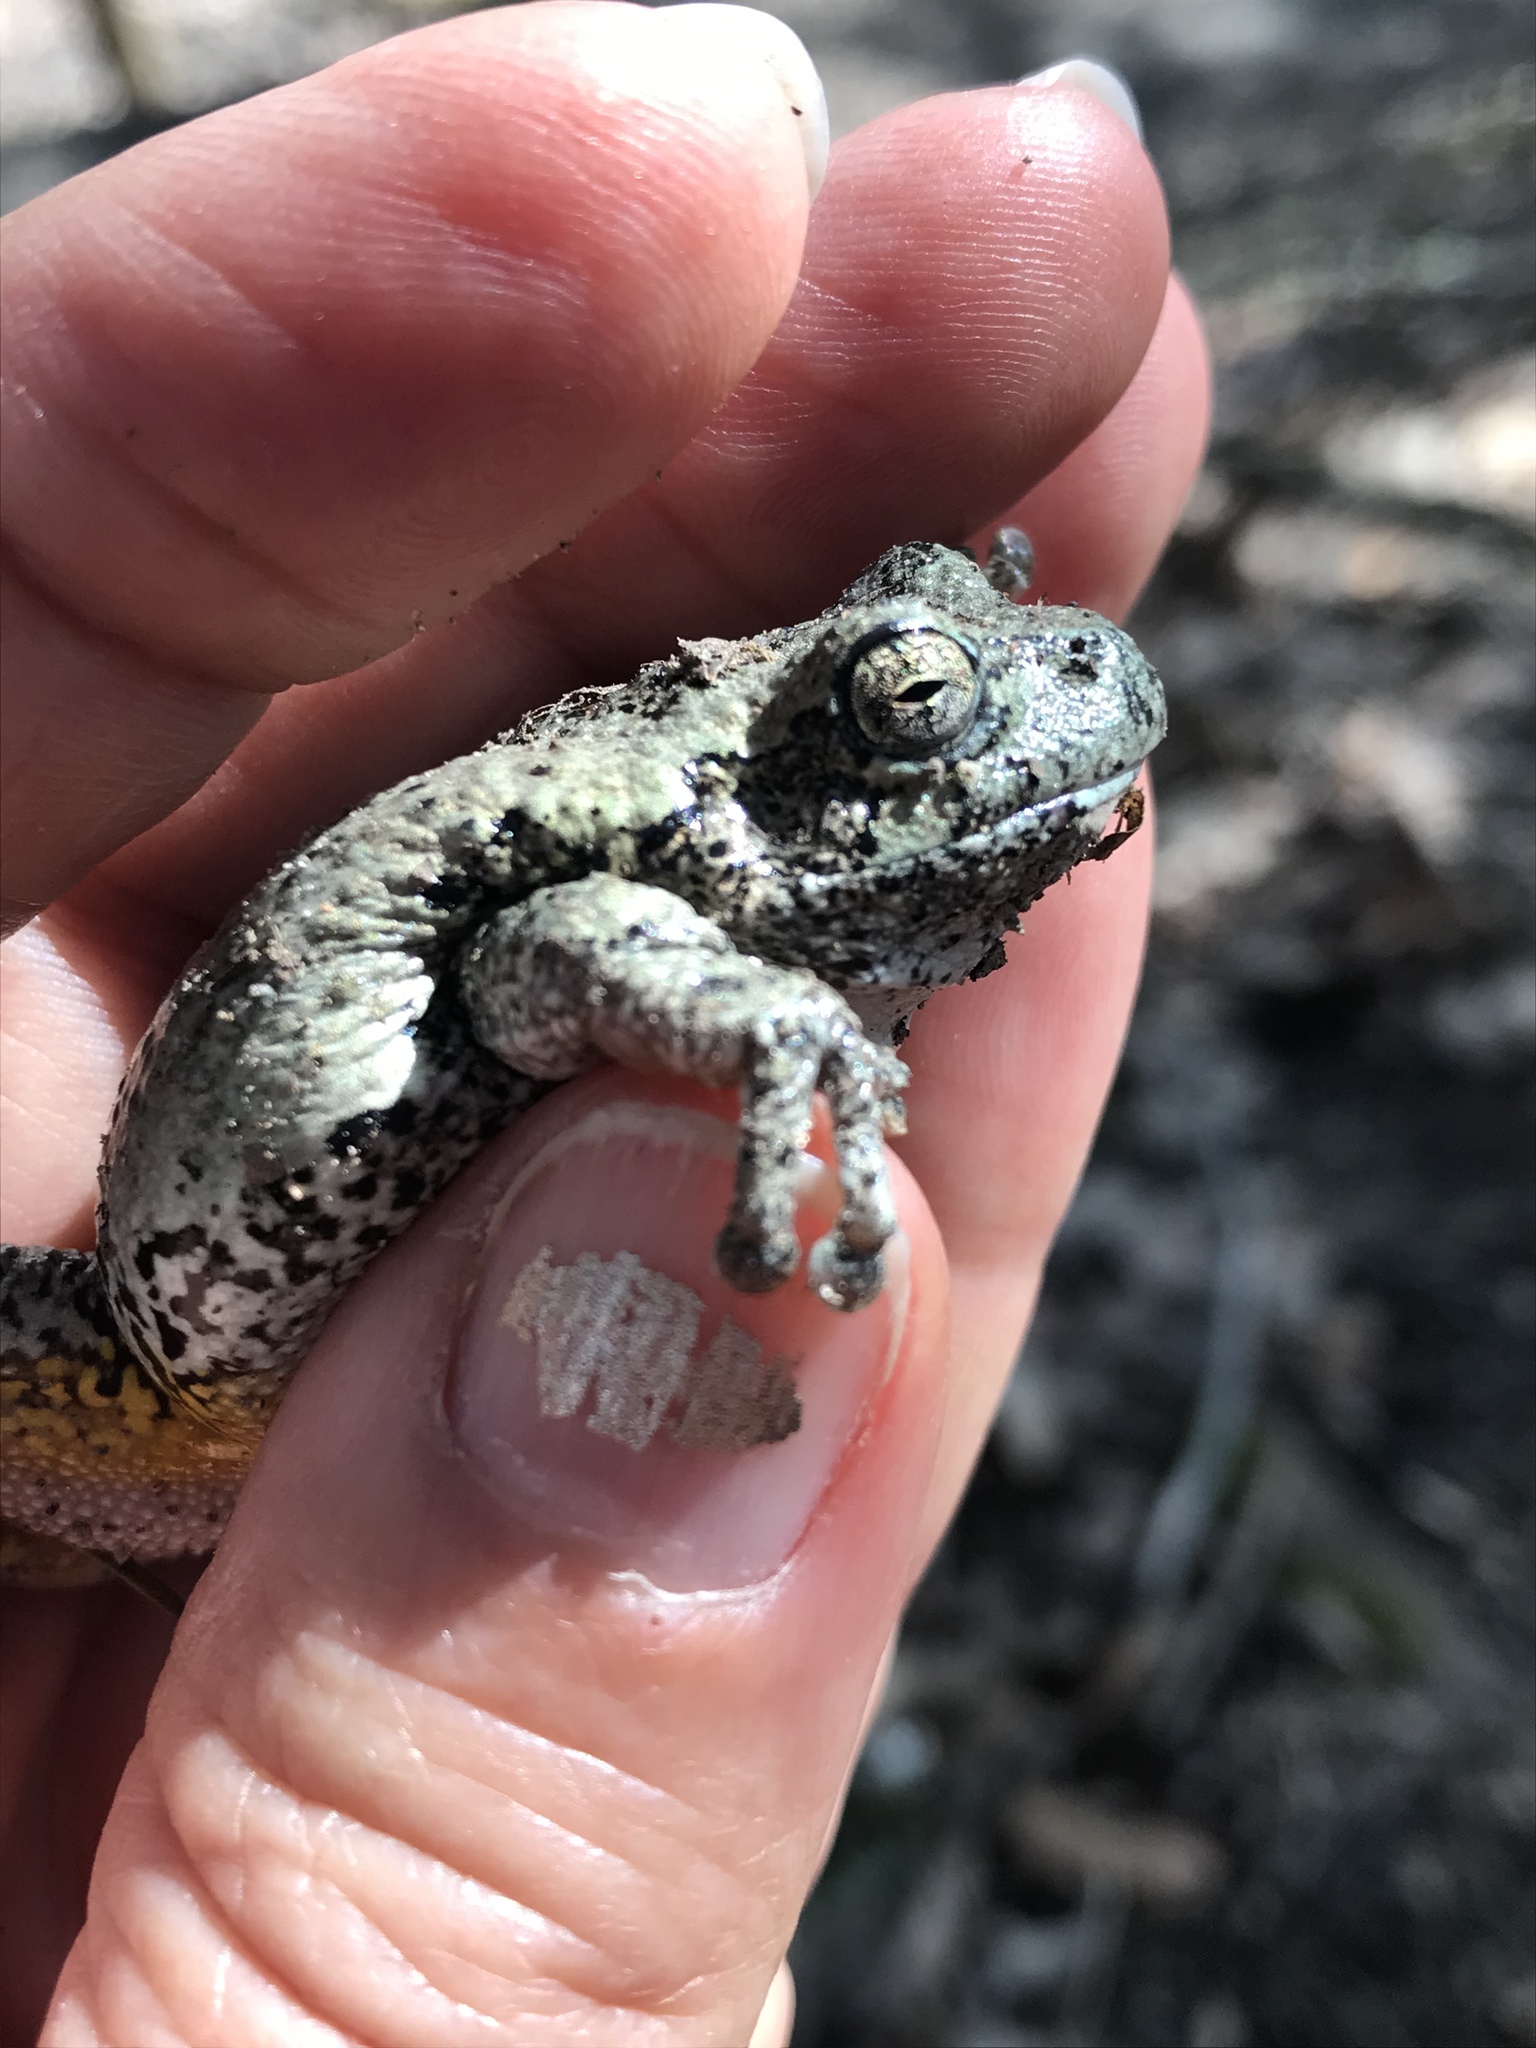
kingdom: Animalia
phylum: Chordata
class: Amphibia
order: Anura
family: Hylidae
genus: Dryophytes
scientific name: Dryophytes versicolor
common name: Gray treefrog
